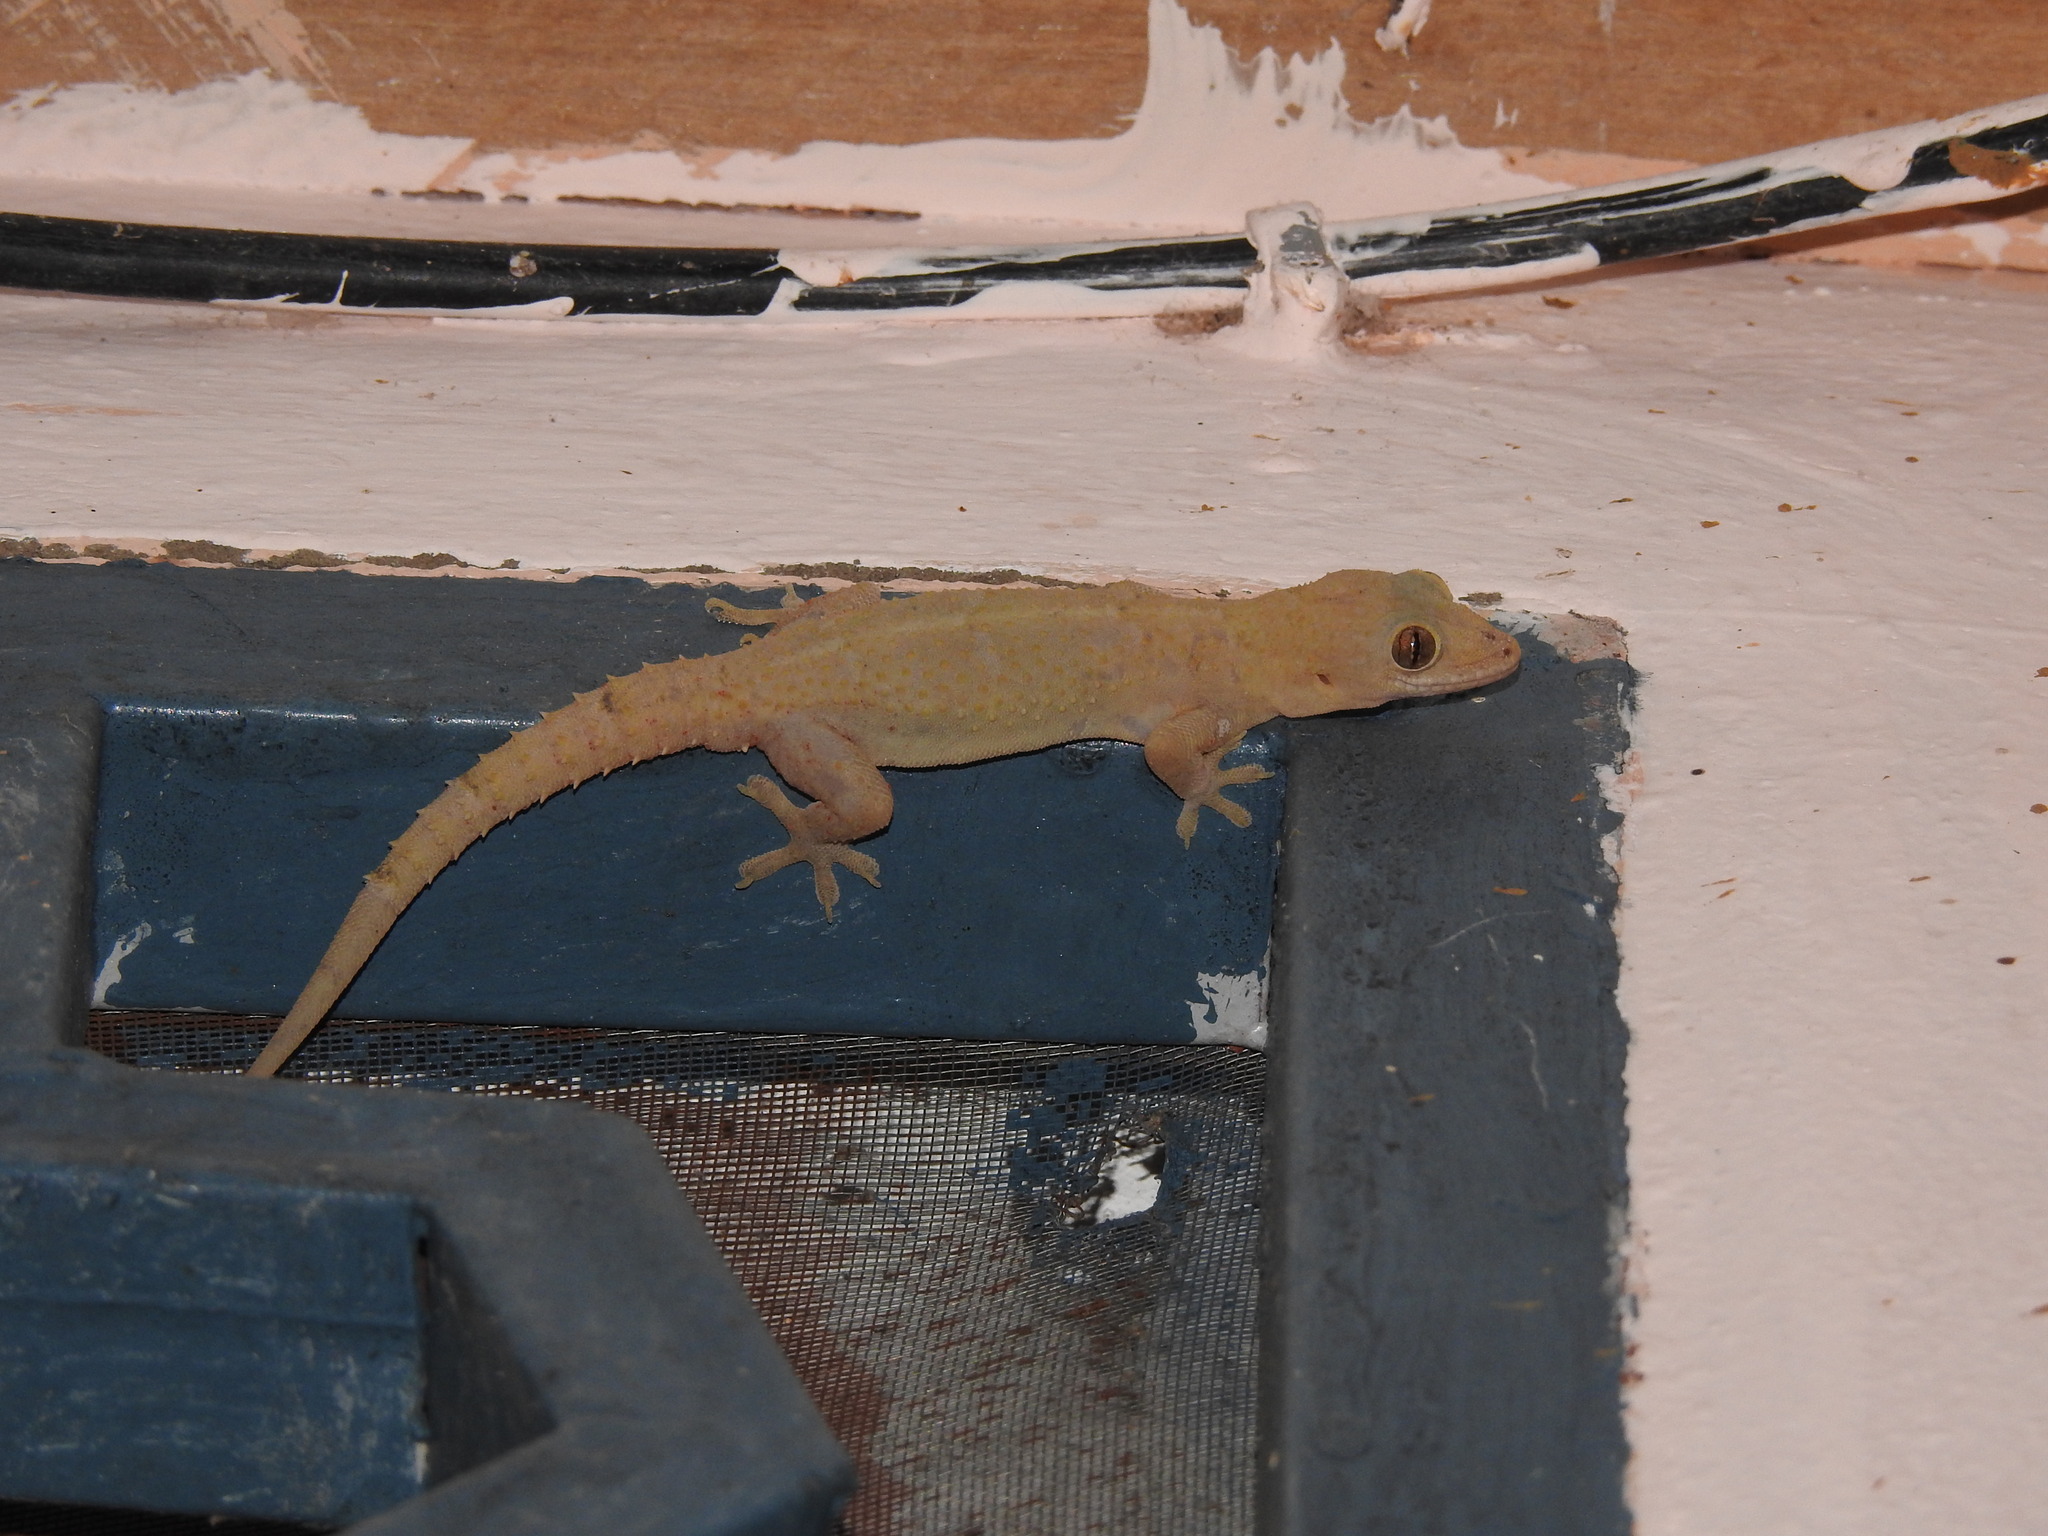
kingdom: Animalia
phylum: Chordata
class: Squamata
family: Gekkonidae
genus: Hemidactylus
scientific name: Hemidactylus mabouia
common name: House gecko
